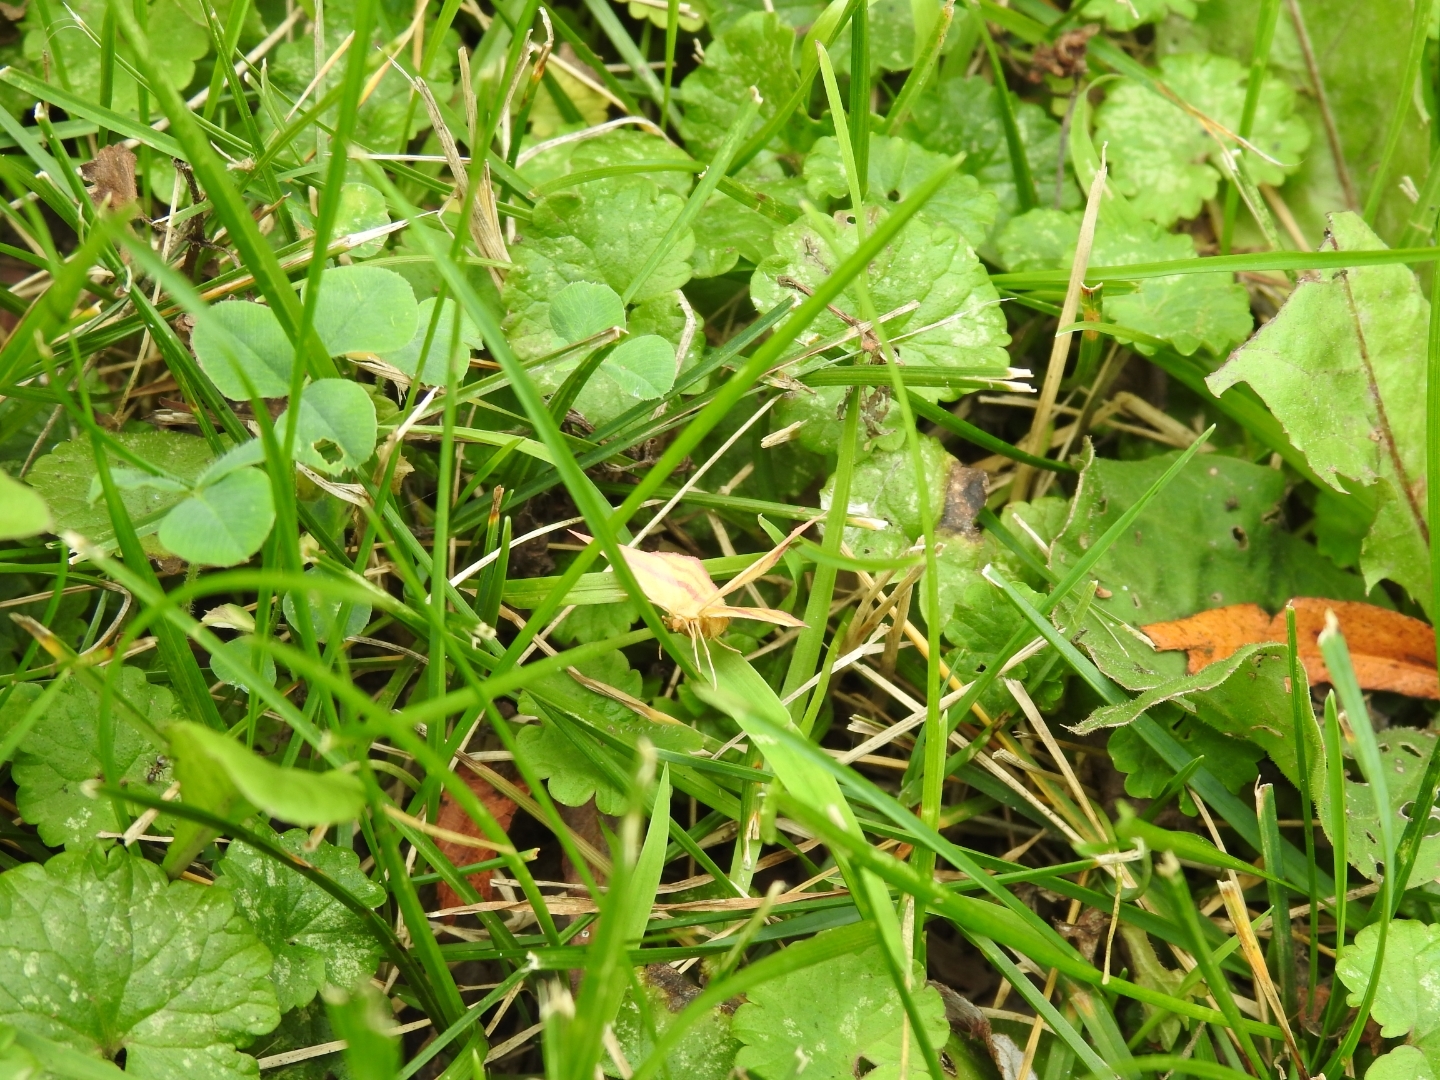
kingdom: Animalia
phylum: Arthropoda
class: Insecta
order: Lepidoptera
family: Geometridae
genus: Haematopis
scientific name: Haematopis grataria
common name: Chickweed geometer
